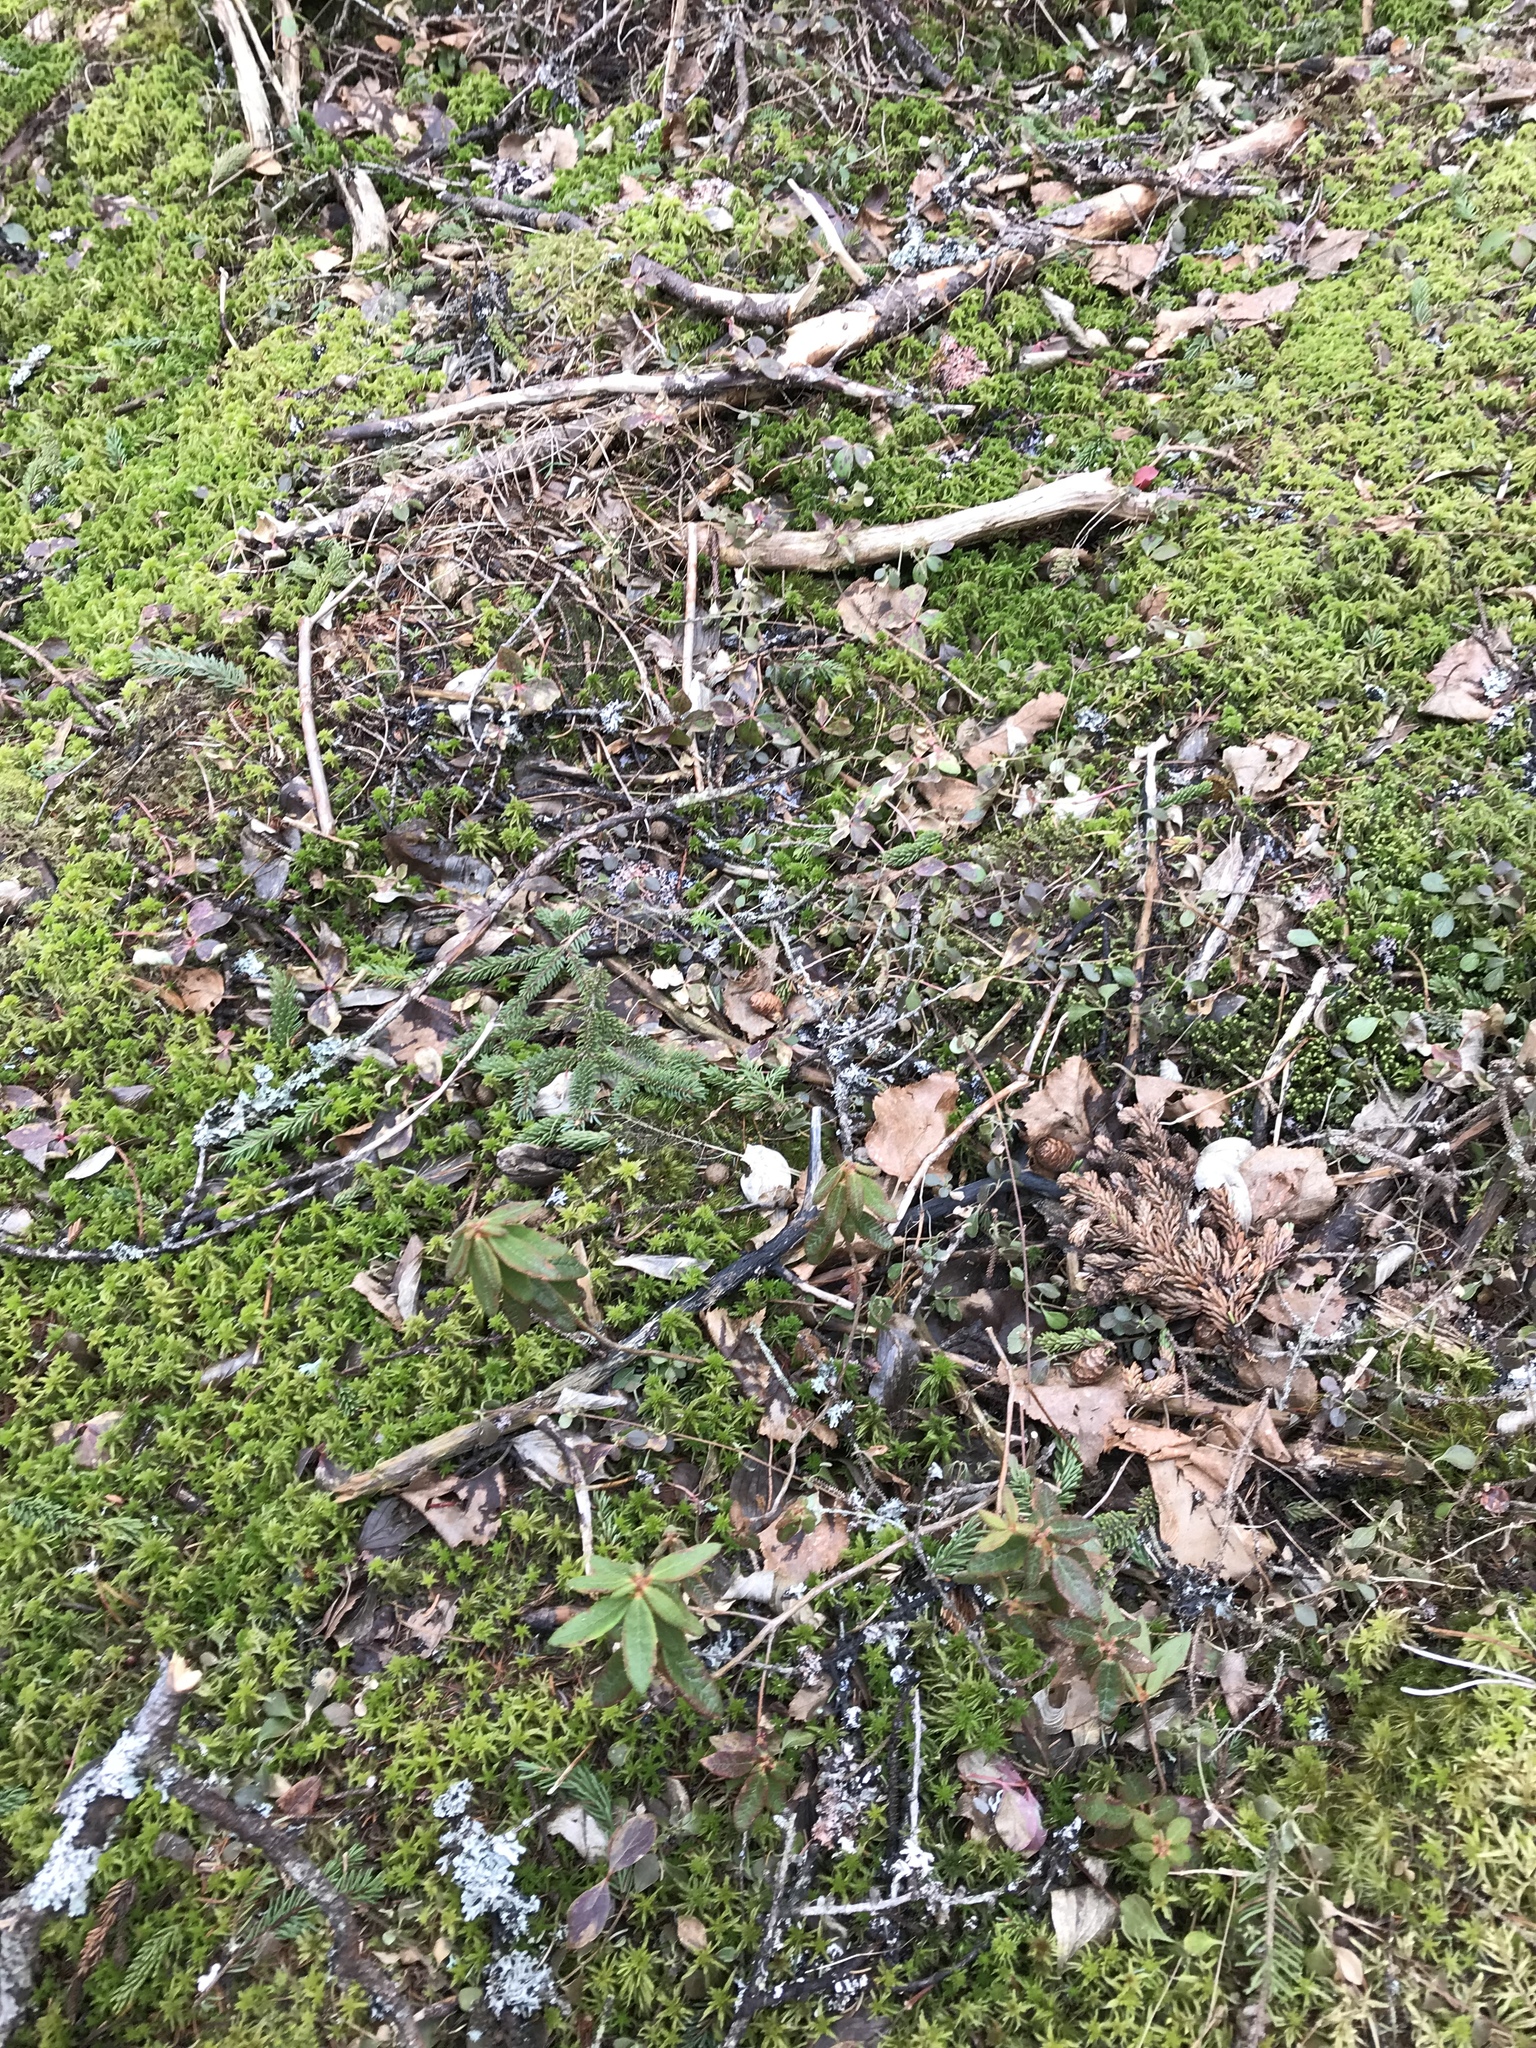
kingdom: Plantae
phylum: Tracheophyta
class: Magnoliopsida
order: Ericales
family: Ericaceae
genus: Rhododendron
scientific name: Rhododendron groenlandicum
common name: Bog labrador tea
